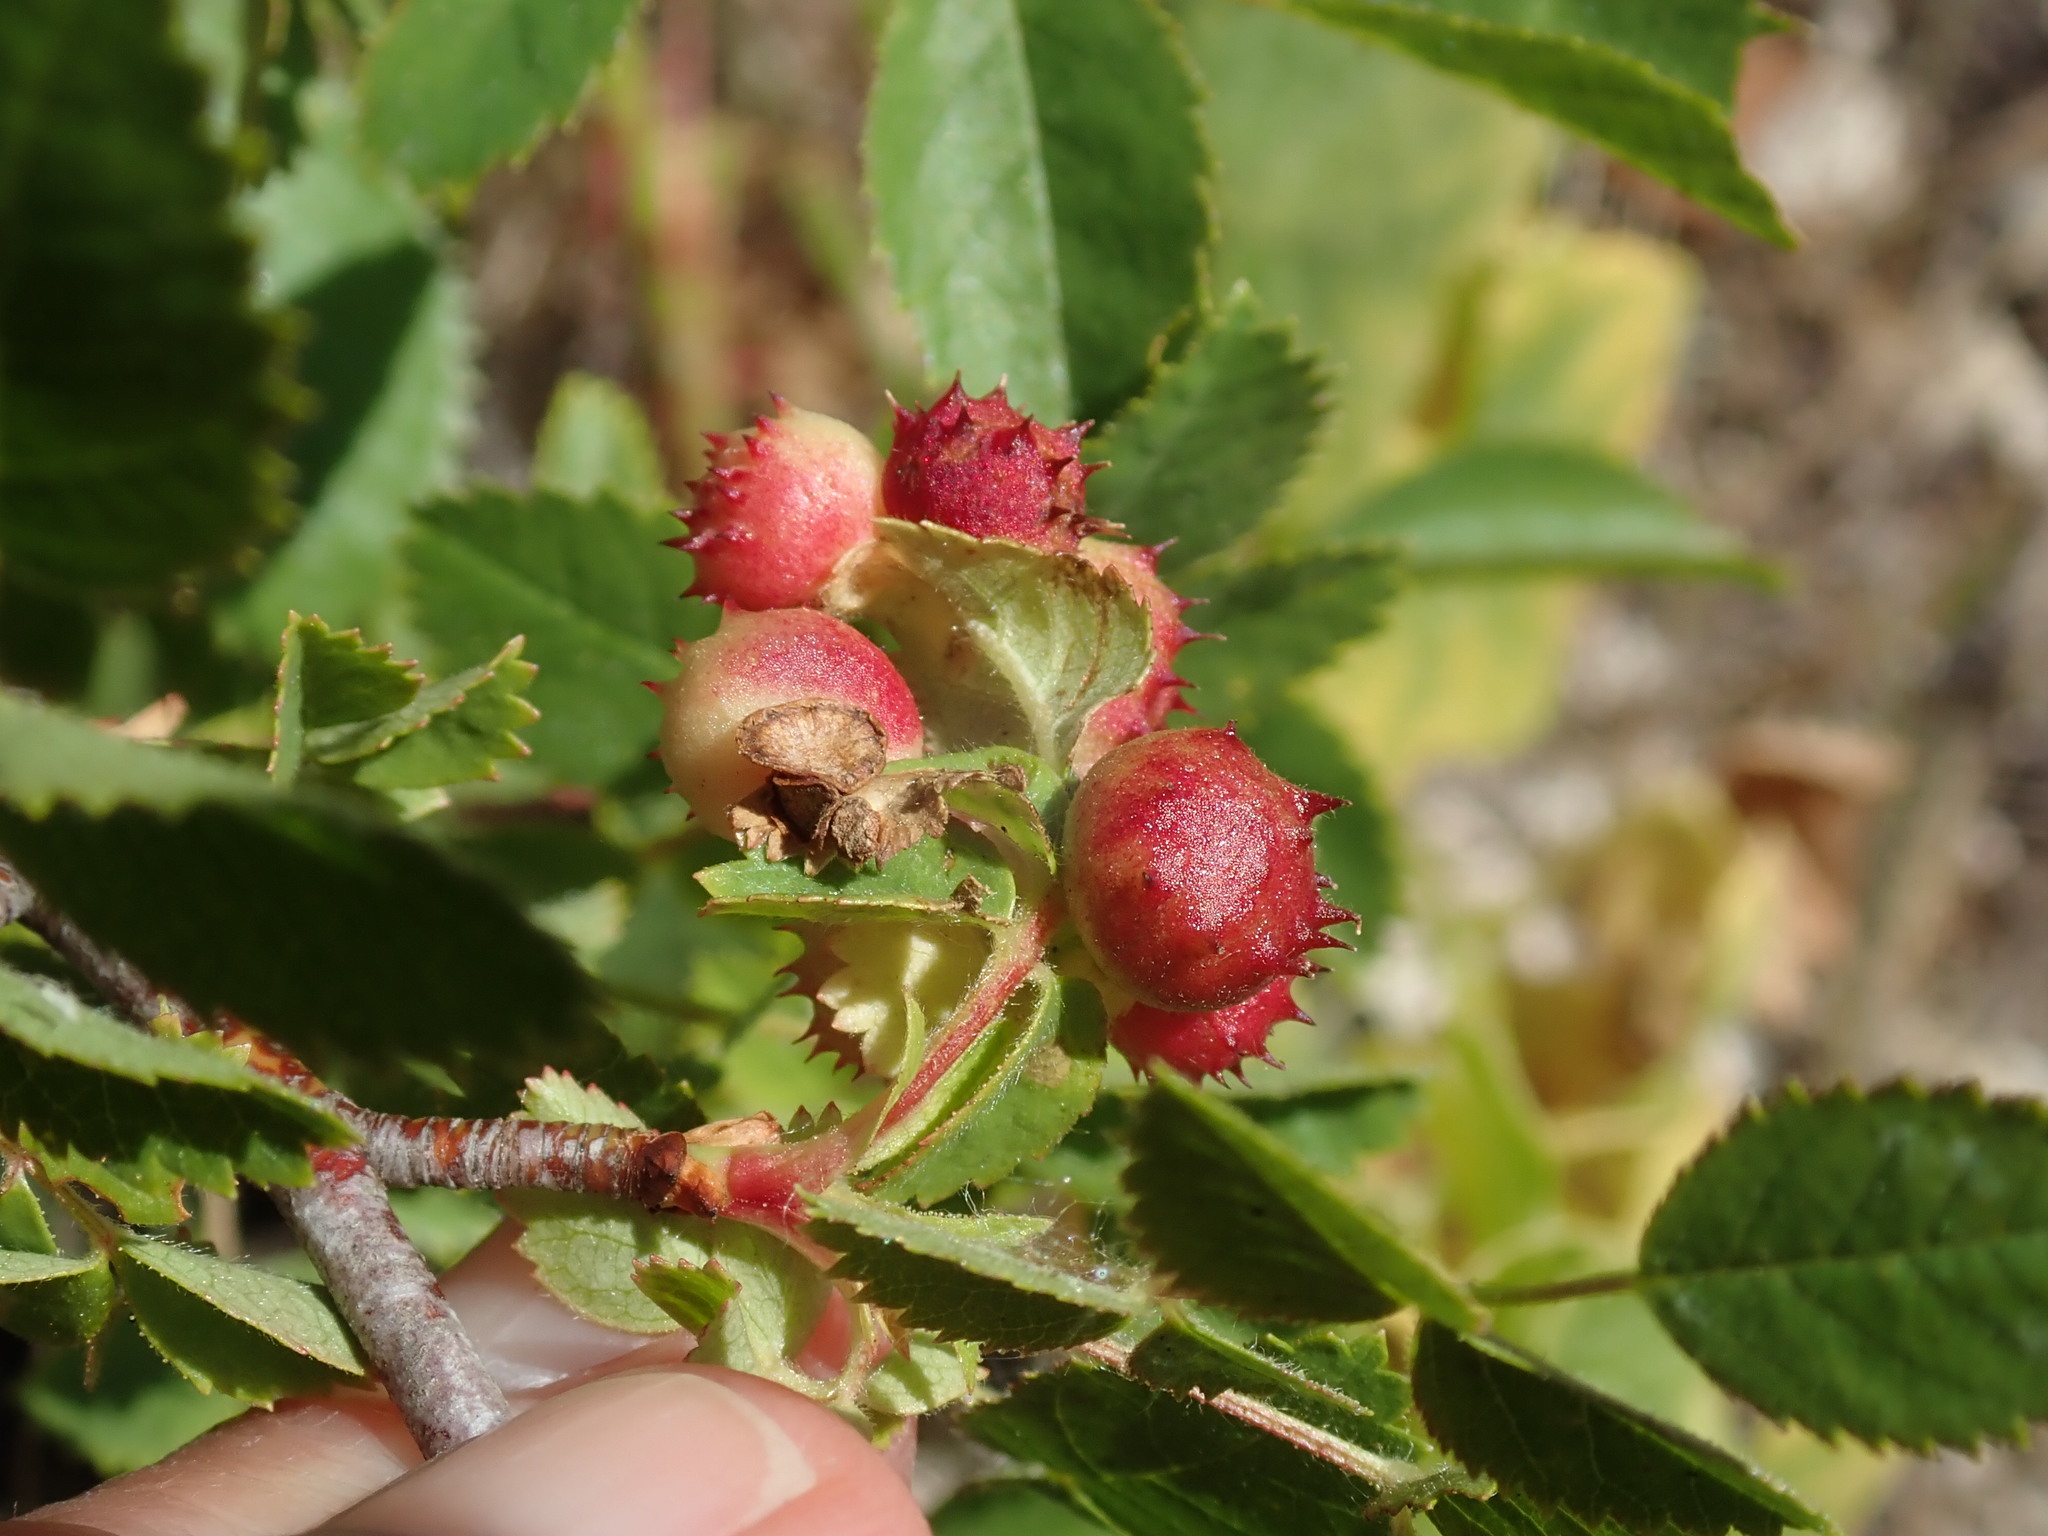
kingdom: Animalia
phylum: Arthropoda
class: Insecta
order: Hymenoptera
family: Cynipidae
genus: Diplolepis
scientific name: Diplolepis polita
